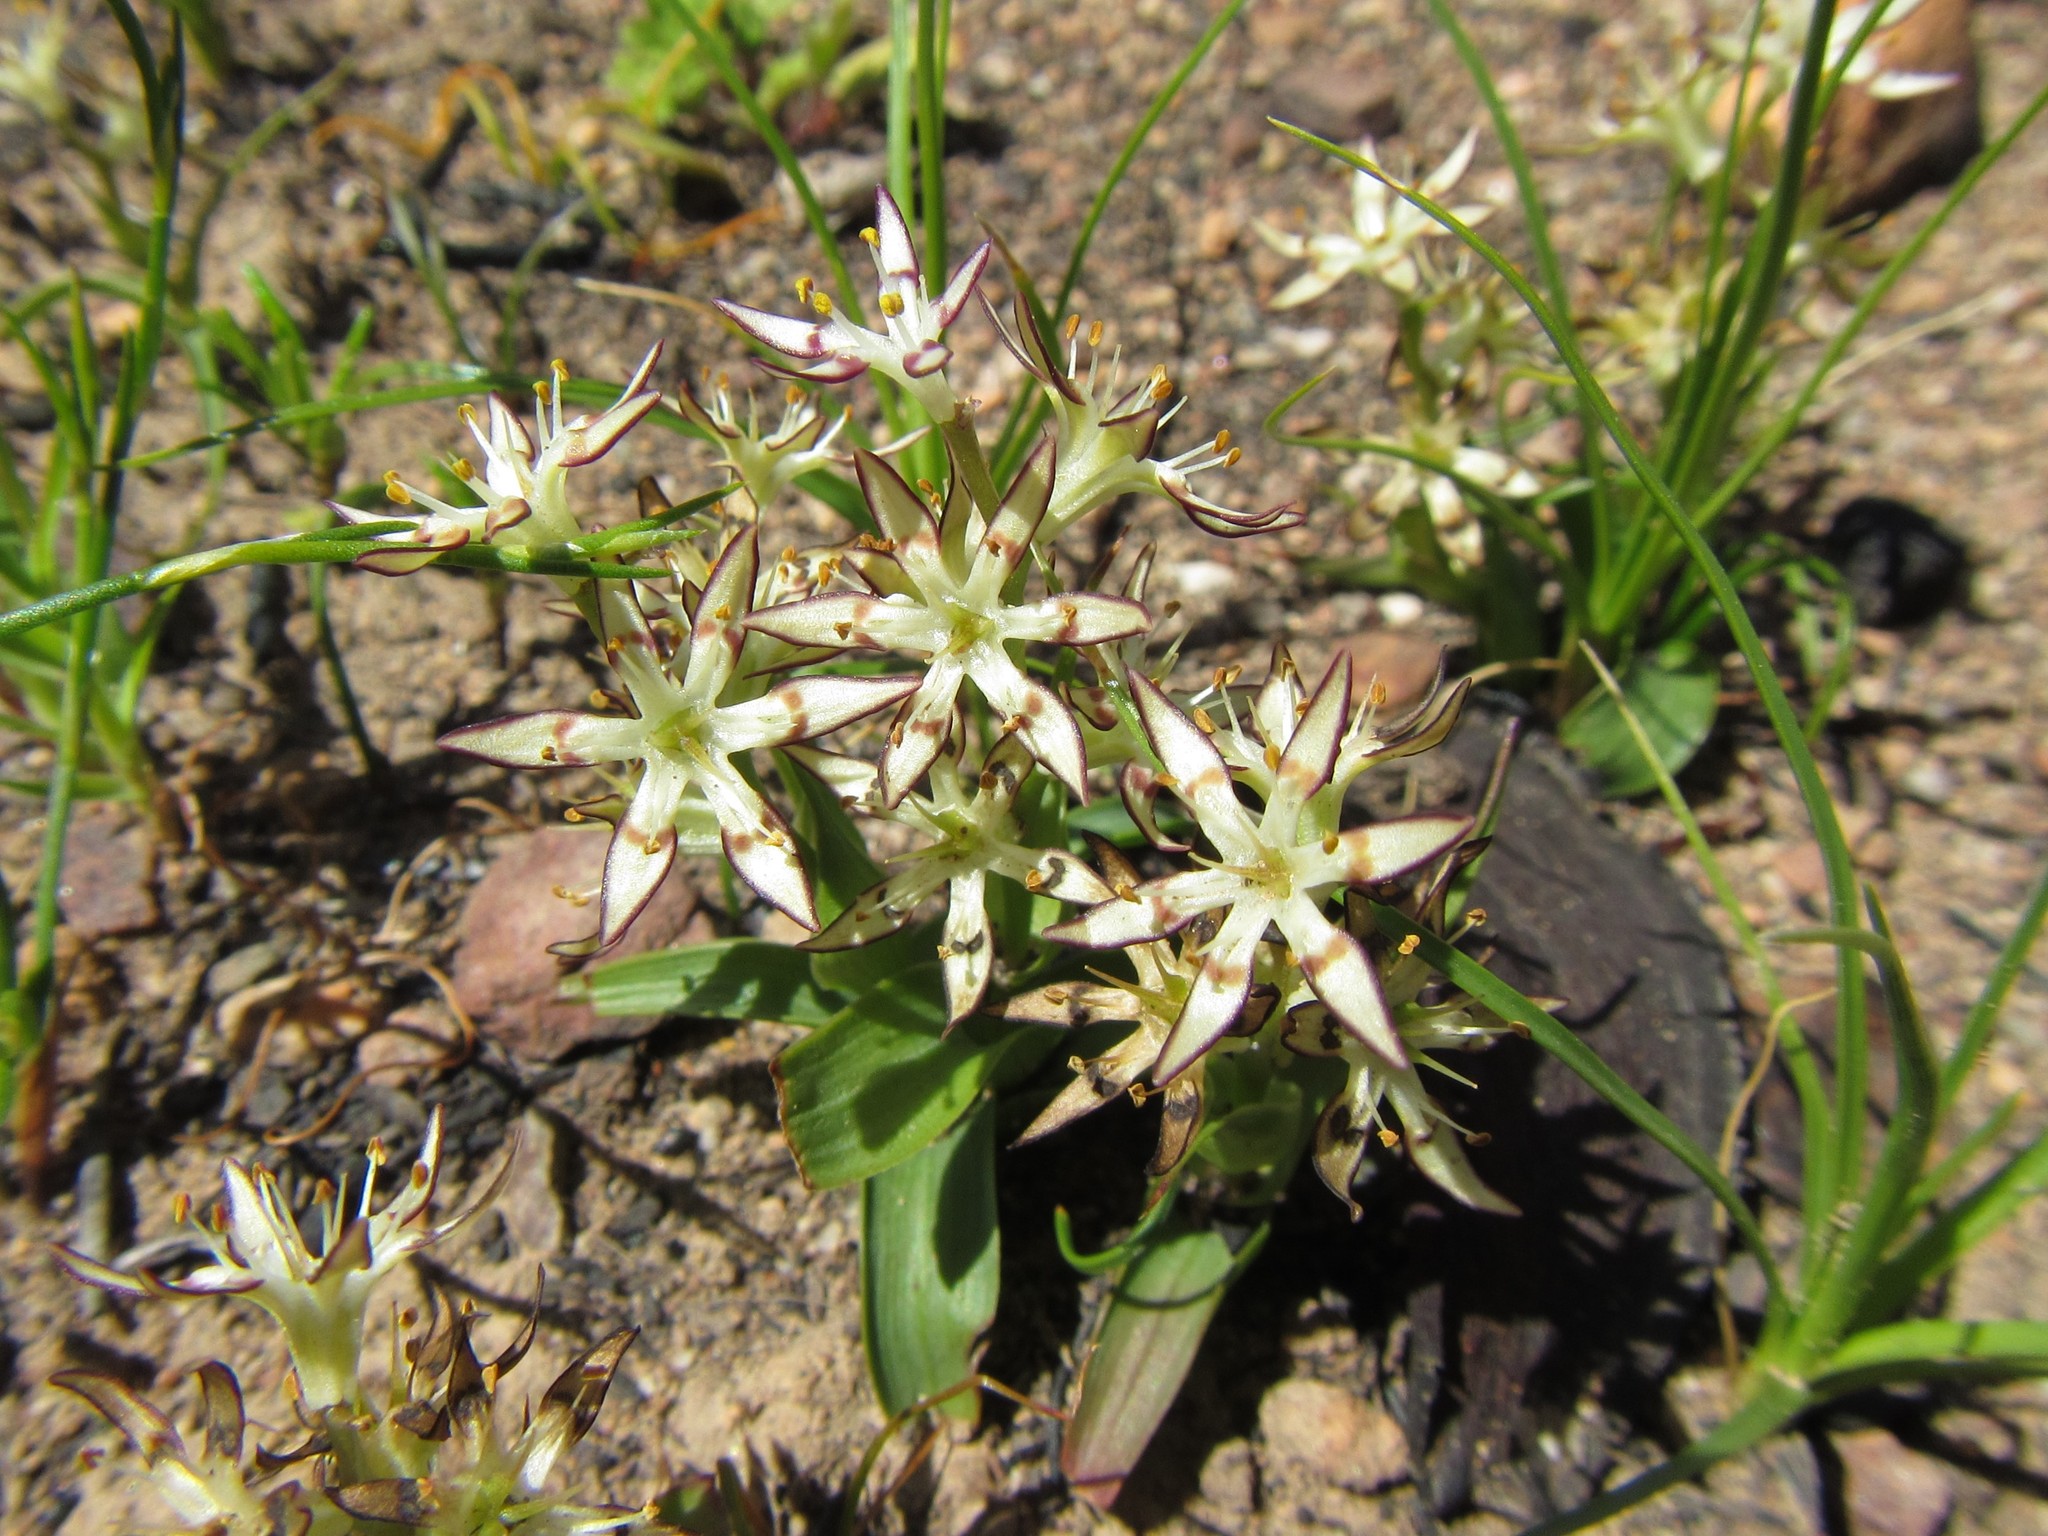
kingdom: Plantae
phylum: Tracheophyta
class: Liliopsida
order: Liliales
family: Colchicaceae
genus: Wurmbea
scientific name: Wurmbea variabilis
